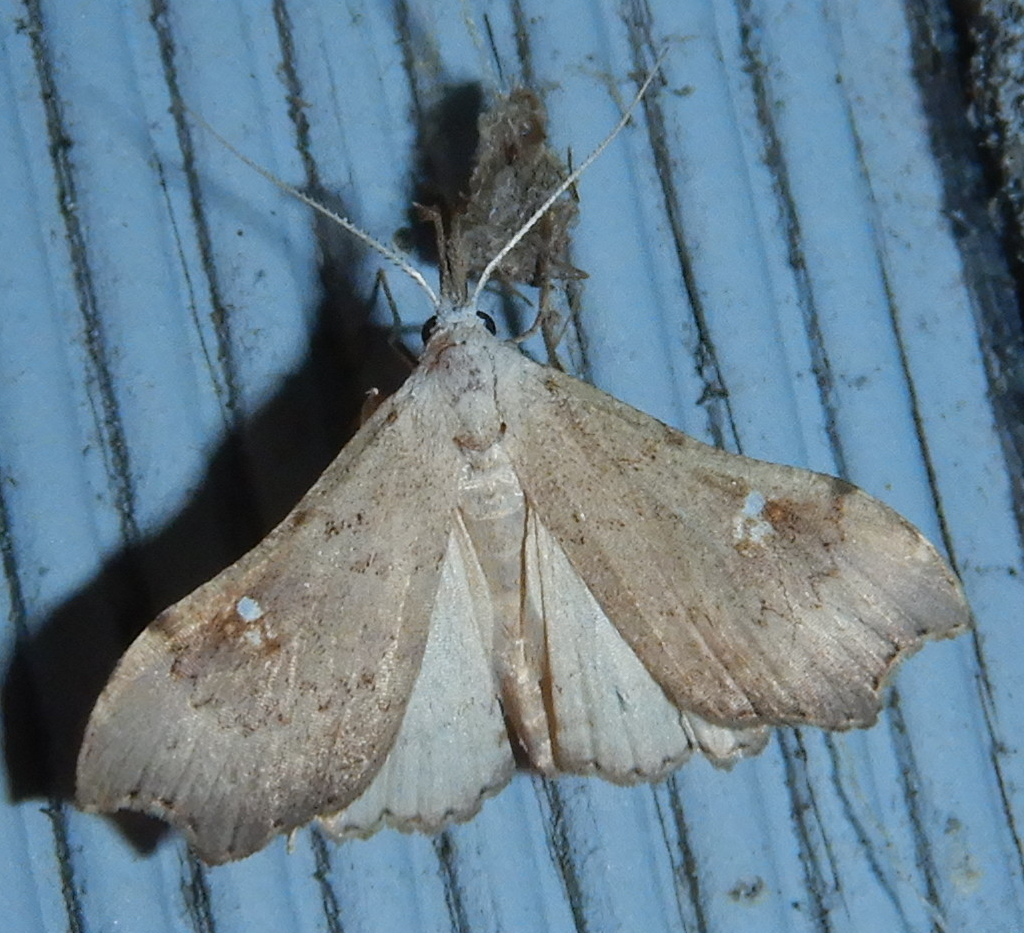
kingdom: Animalia
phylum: Arthropoda
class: Insecta
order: Lepidoptera
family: Erebidae
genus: Redectis
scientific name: Redectis vitrea
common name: White-spotted redectis
